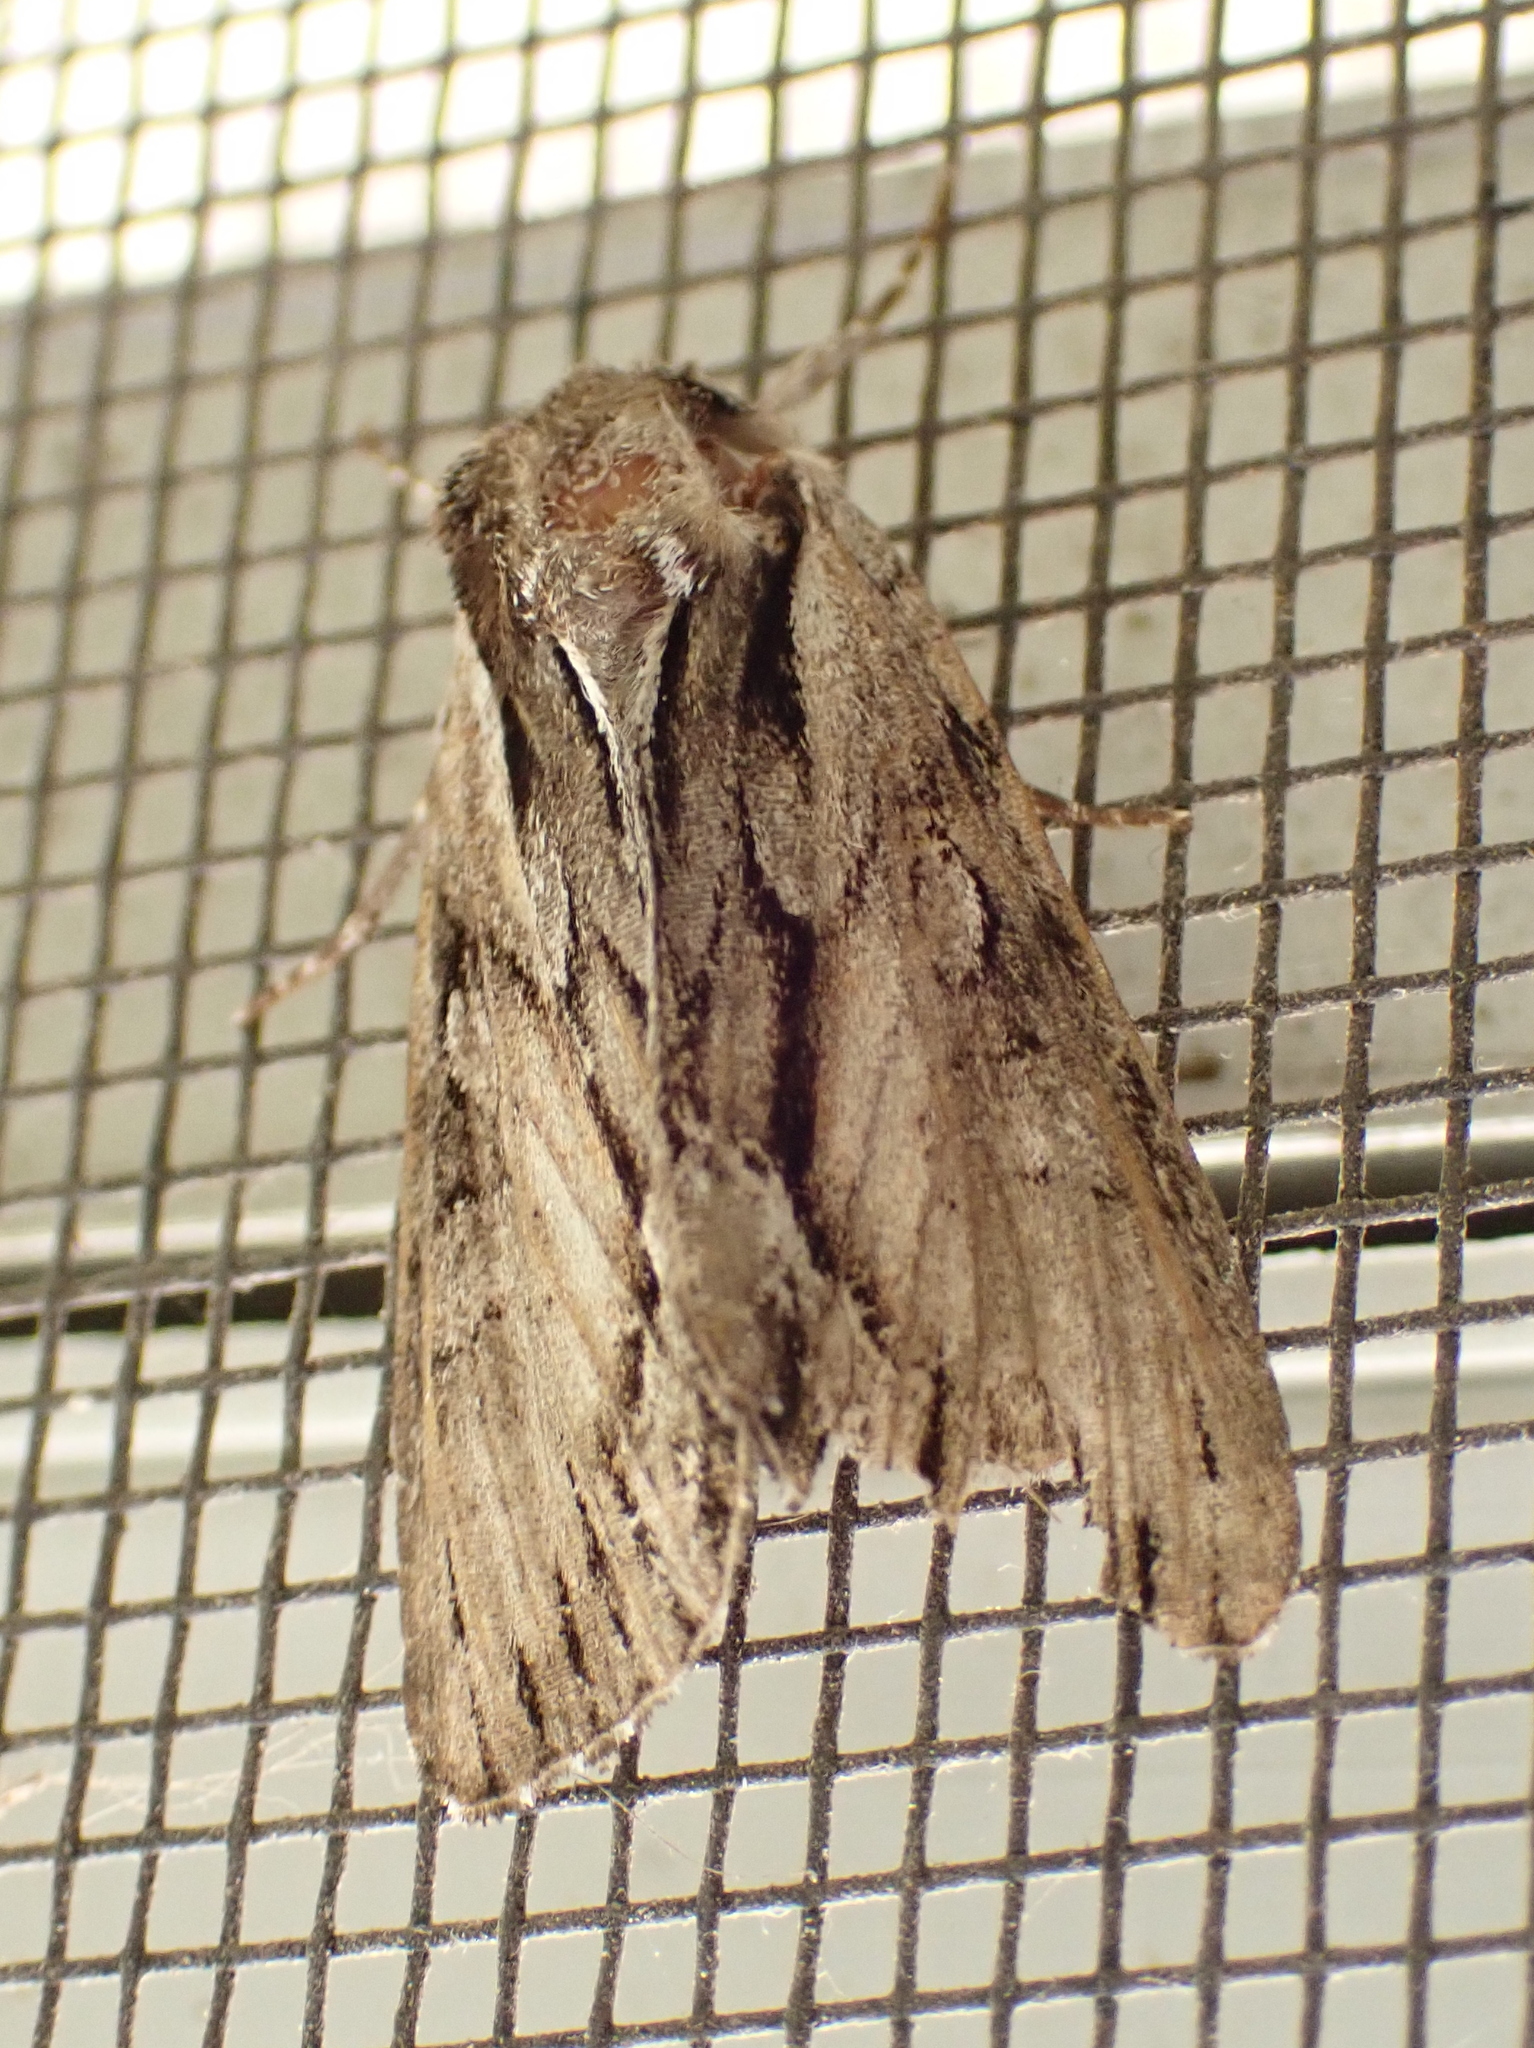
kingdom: Animalia
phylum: Arthropoda
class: Insecta
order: Lepidoptera
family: Noctuidae
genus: Hyppa
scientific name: Hyppa xylinoides
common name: Common hyppa moth
